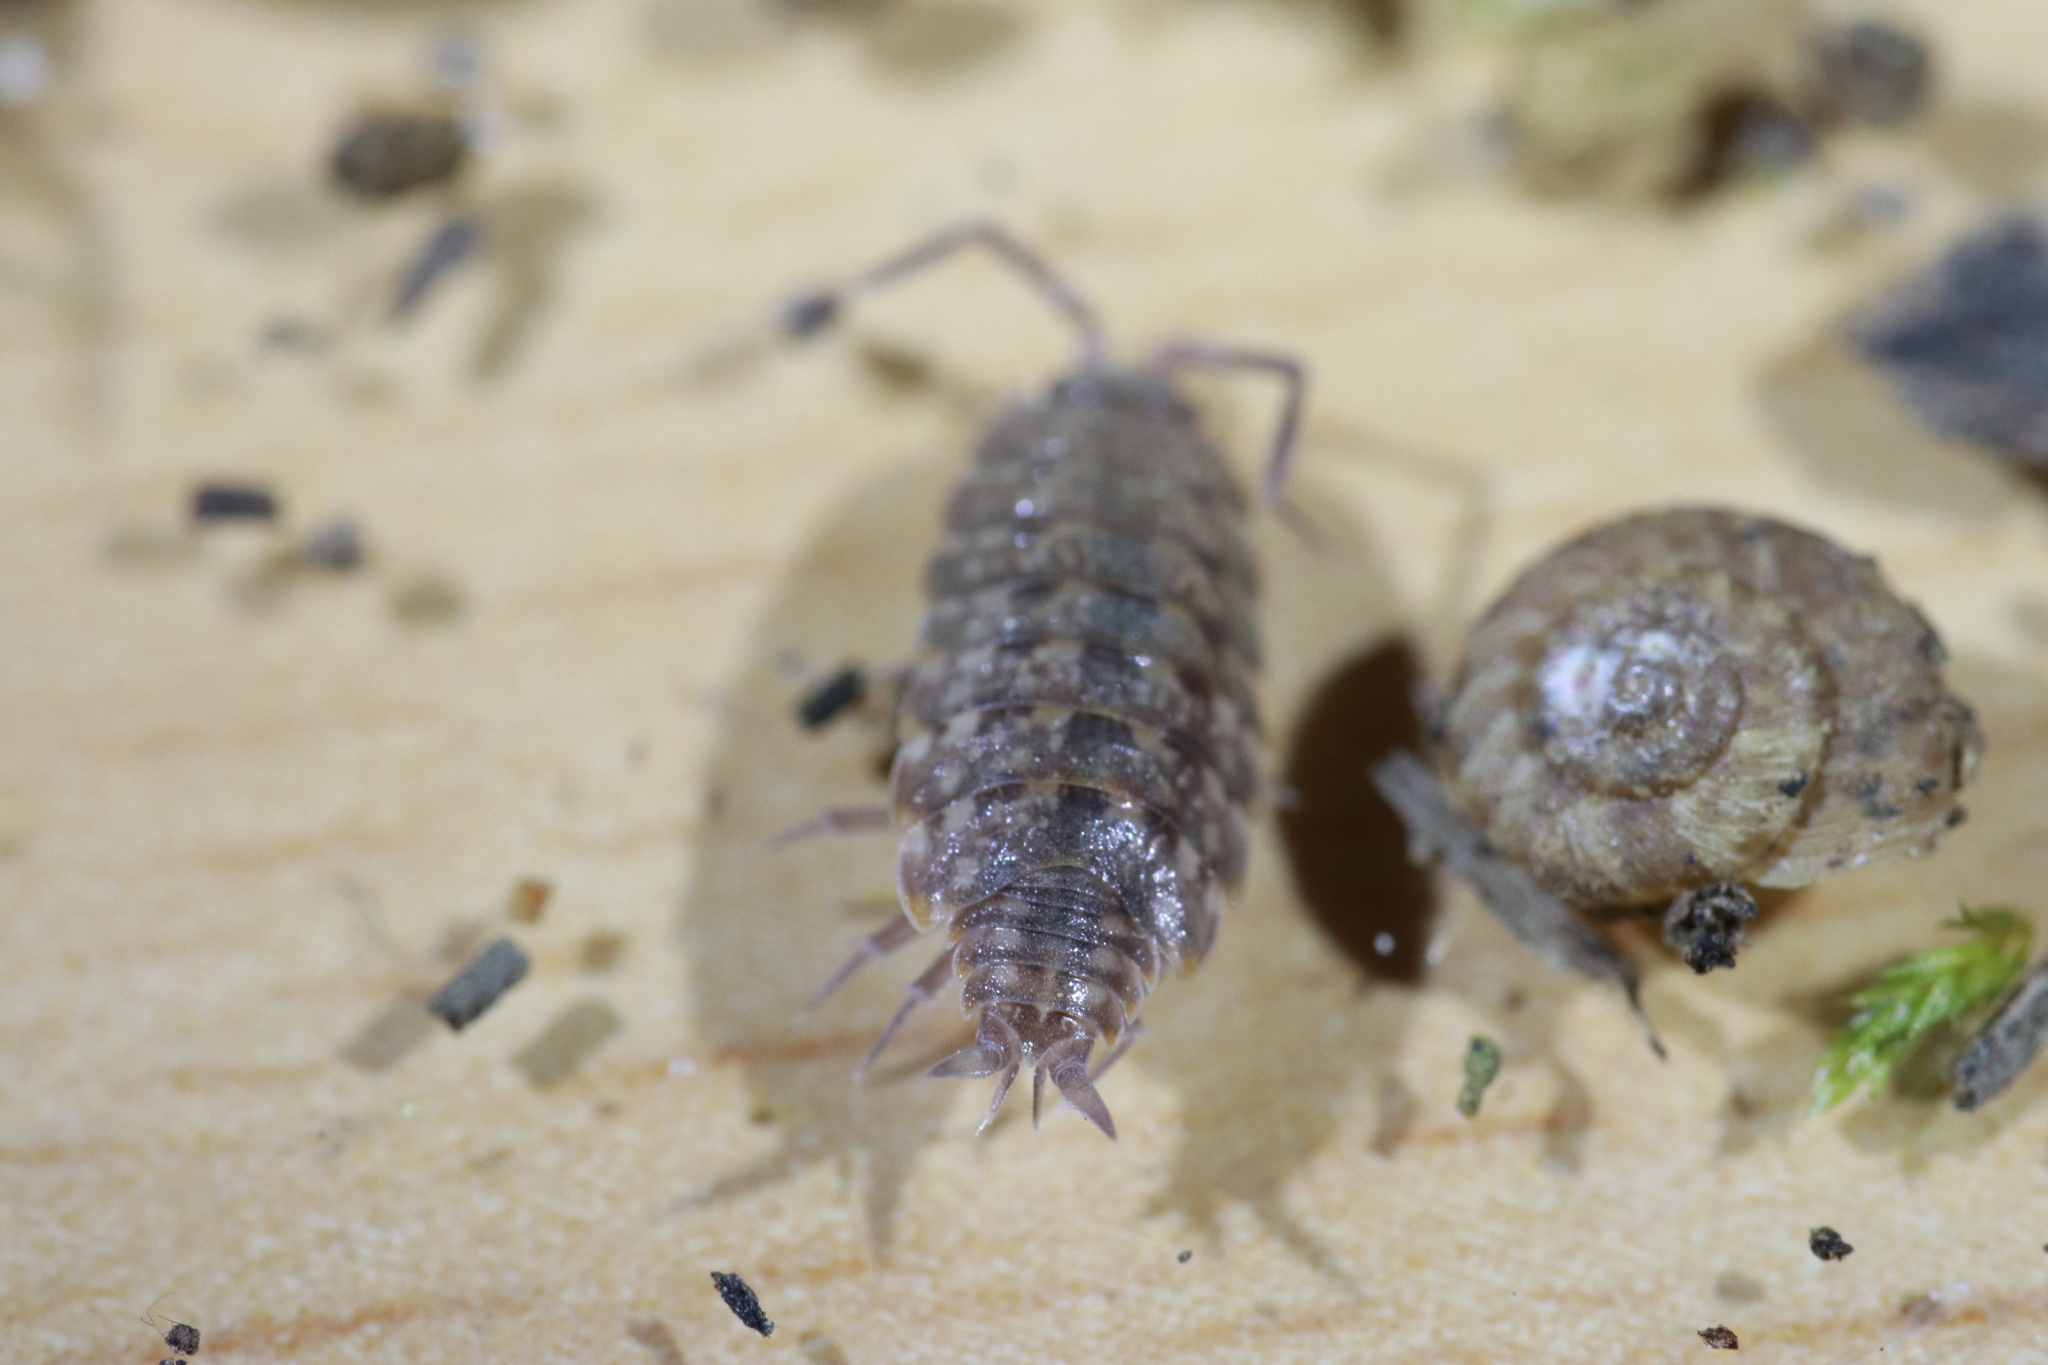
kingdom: Animalia
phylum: Arthropoda
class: Malacostraca
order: Isopoda
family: Agnaridae
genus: Orthometopon
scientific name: Orthometopon planum
